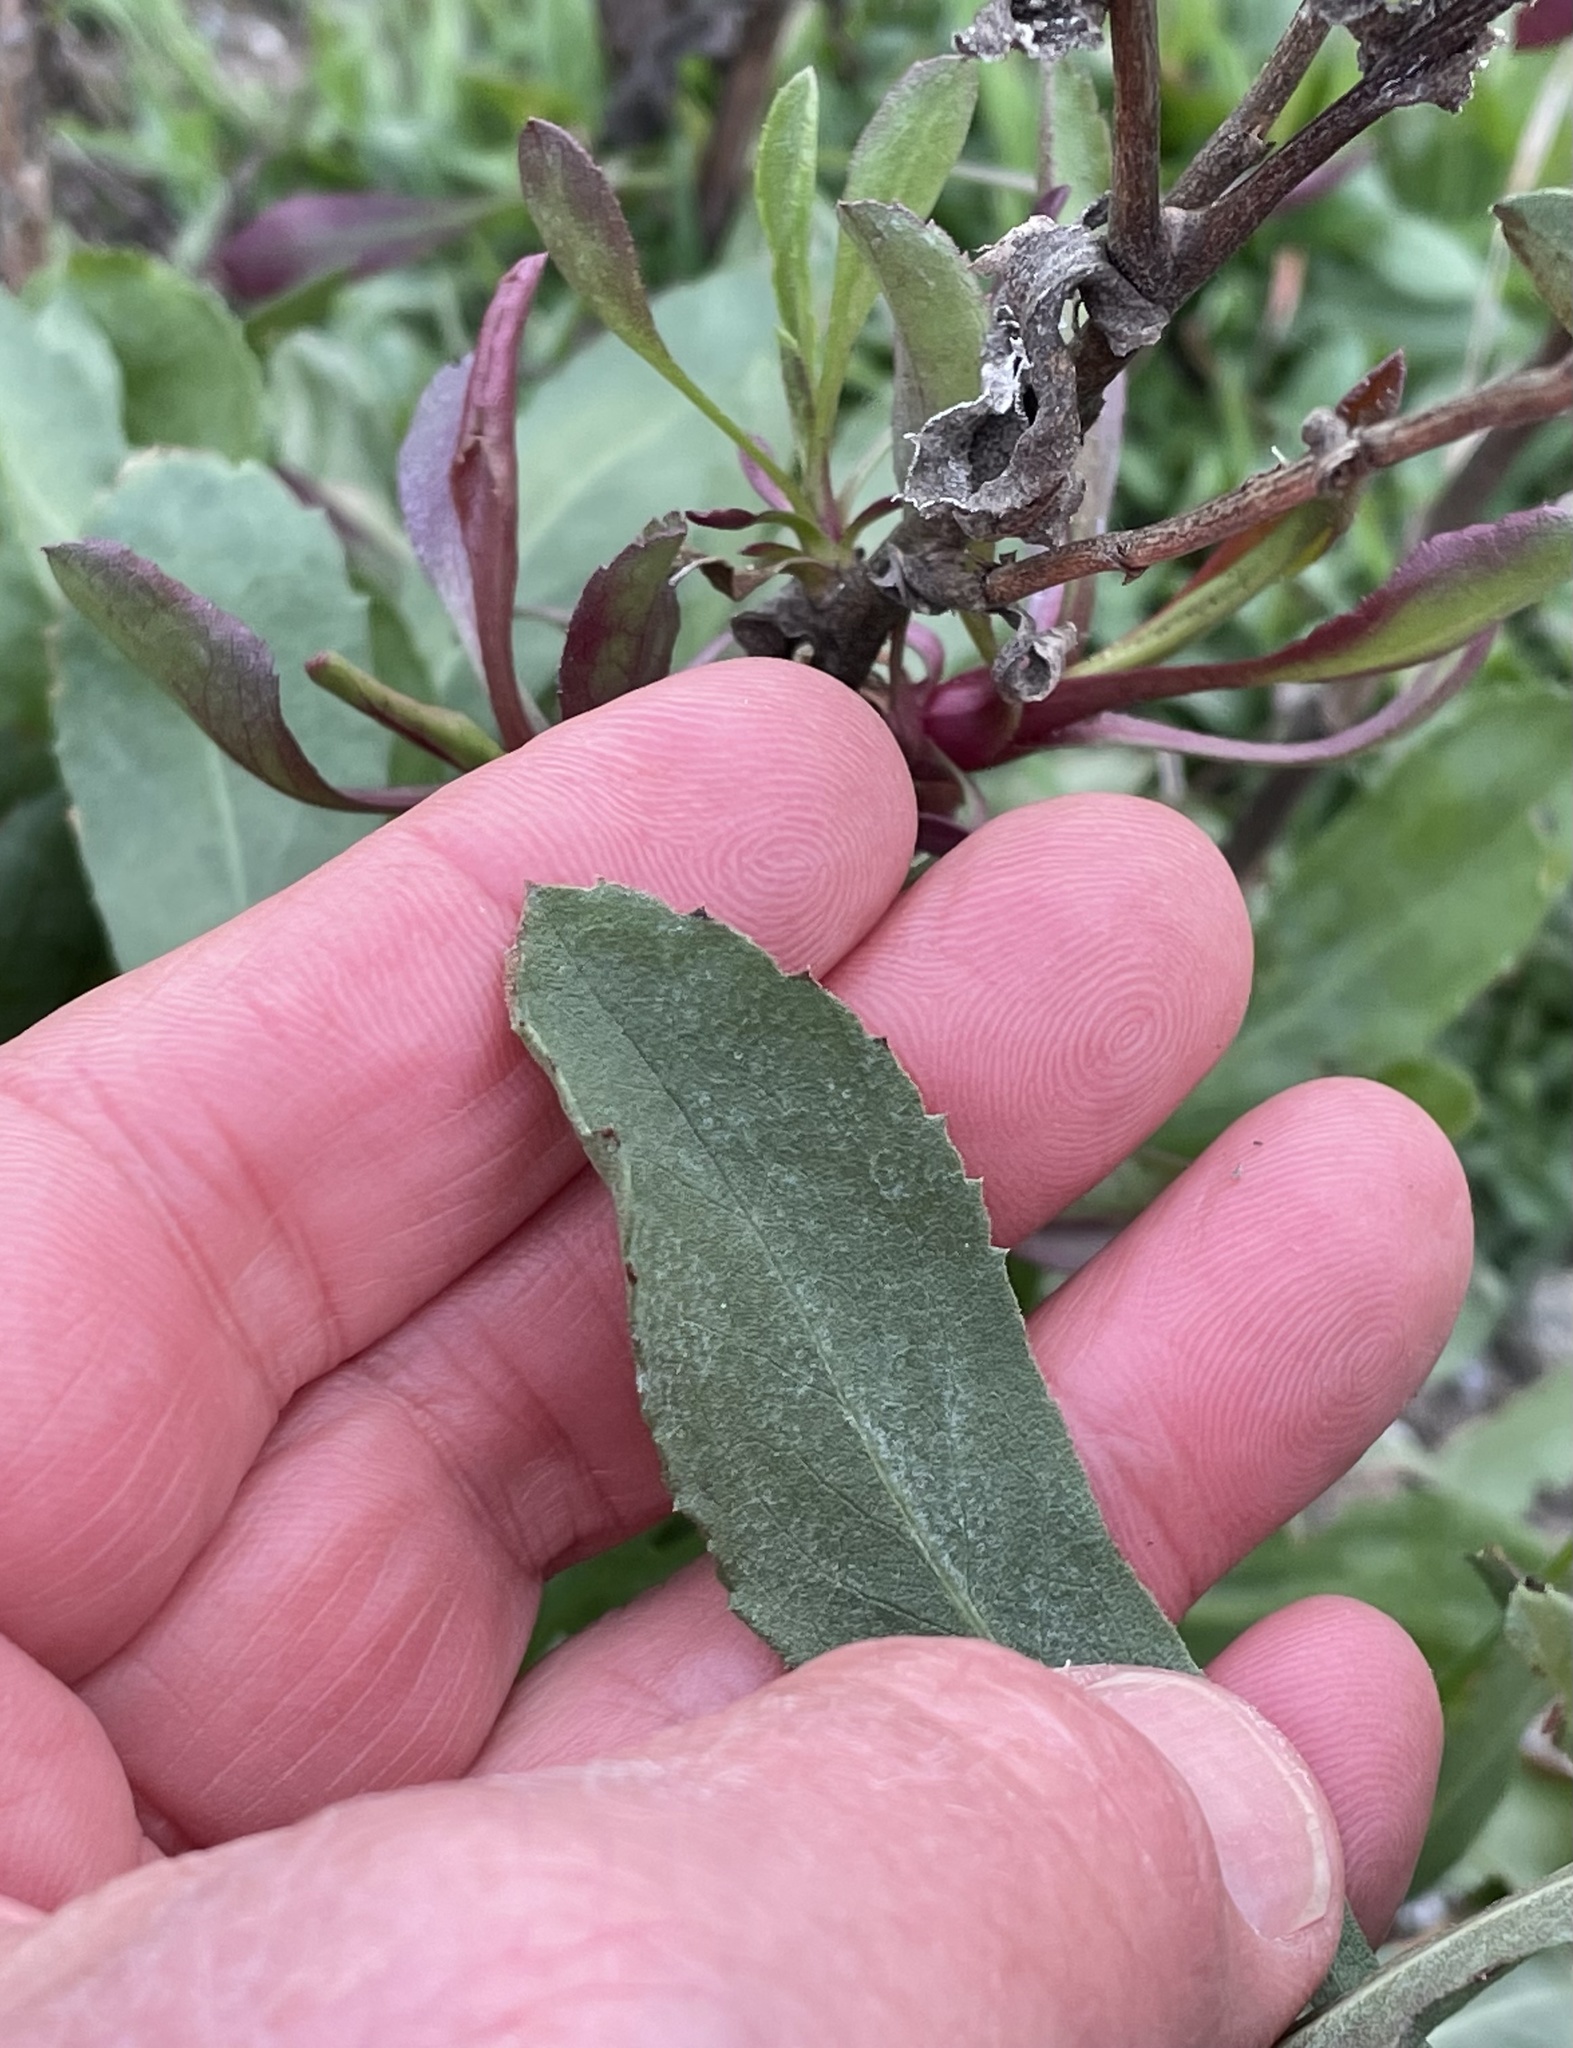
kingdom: Plantae
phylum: Tracheophyta
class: Magnoliopsida
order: Asterales
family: Asteraceae
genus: Grindelia
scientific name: Grindelia hirsutula
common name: Hairy gumweed
